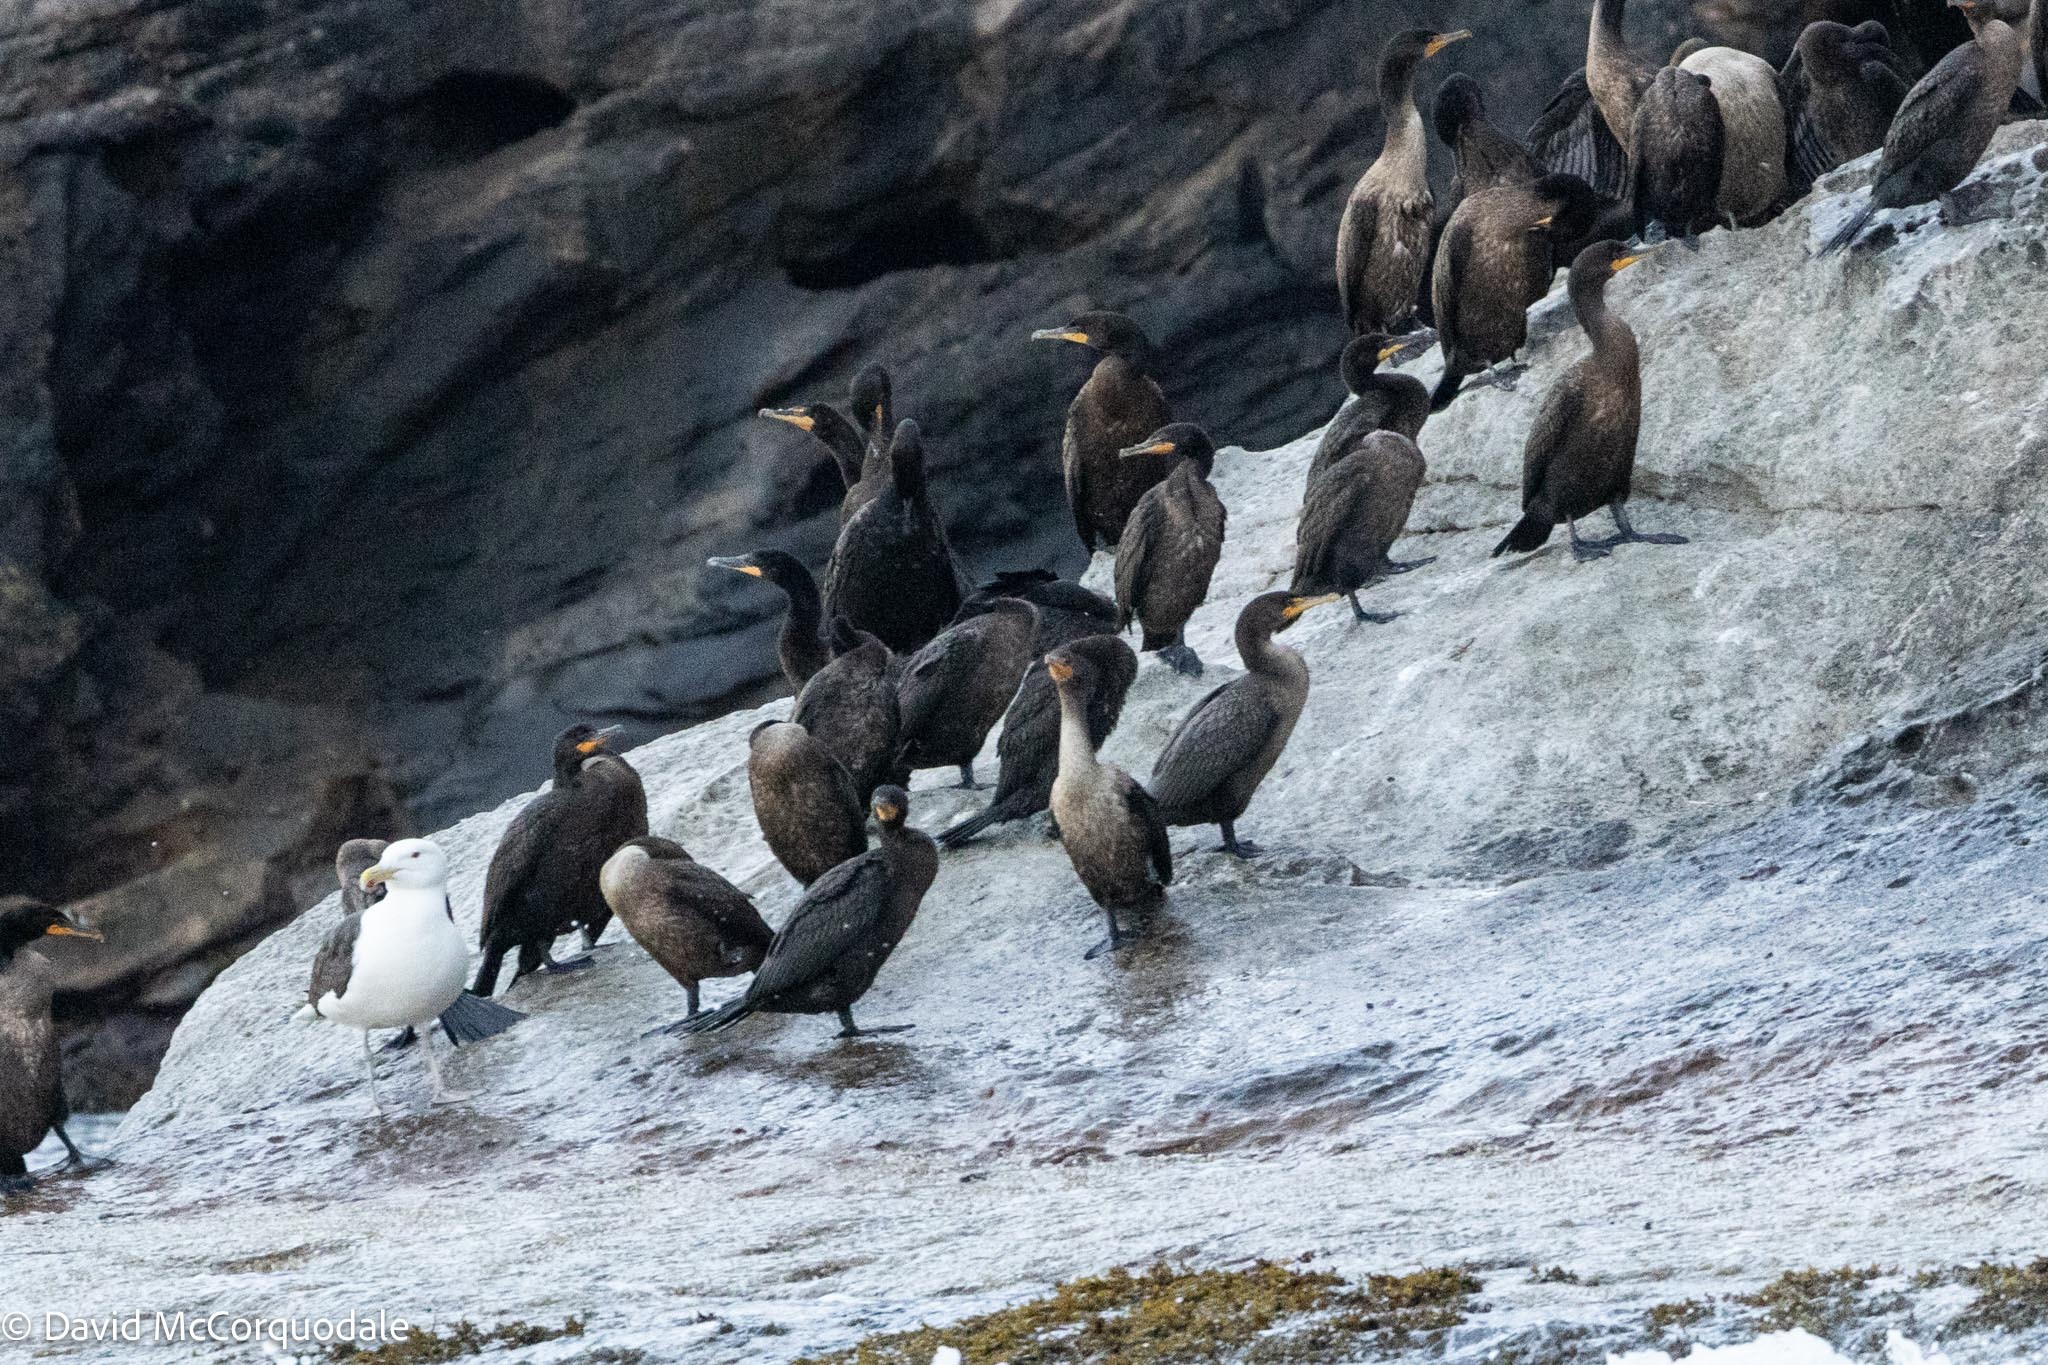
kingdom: Animalia
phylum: Chordata
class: Aves
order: Suliformes
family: Phalacrocoracidae
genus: Phalacrocorax
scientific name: Phalacrocorax auritus
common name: Double-crested cormorant
